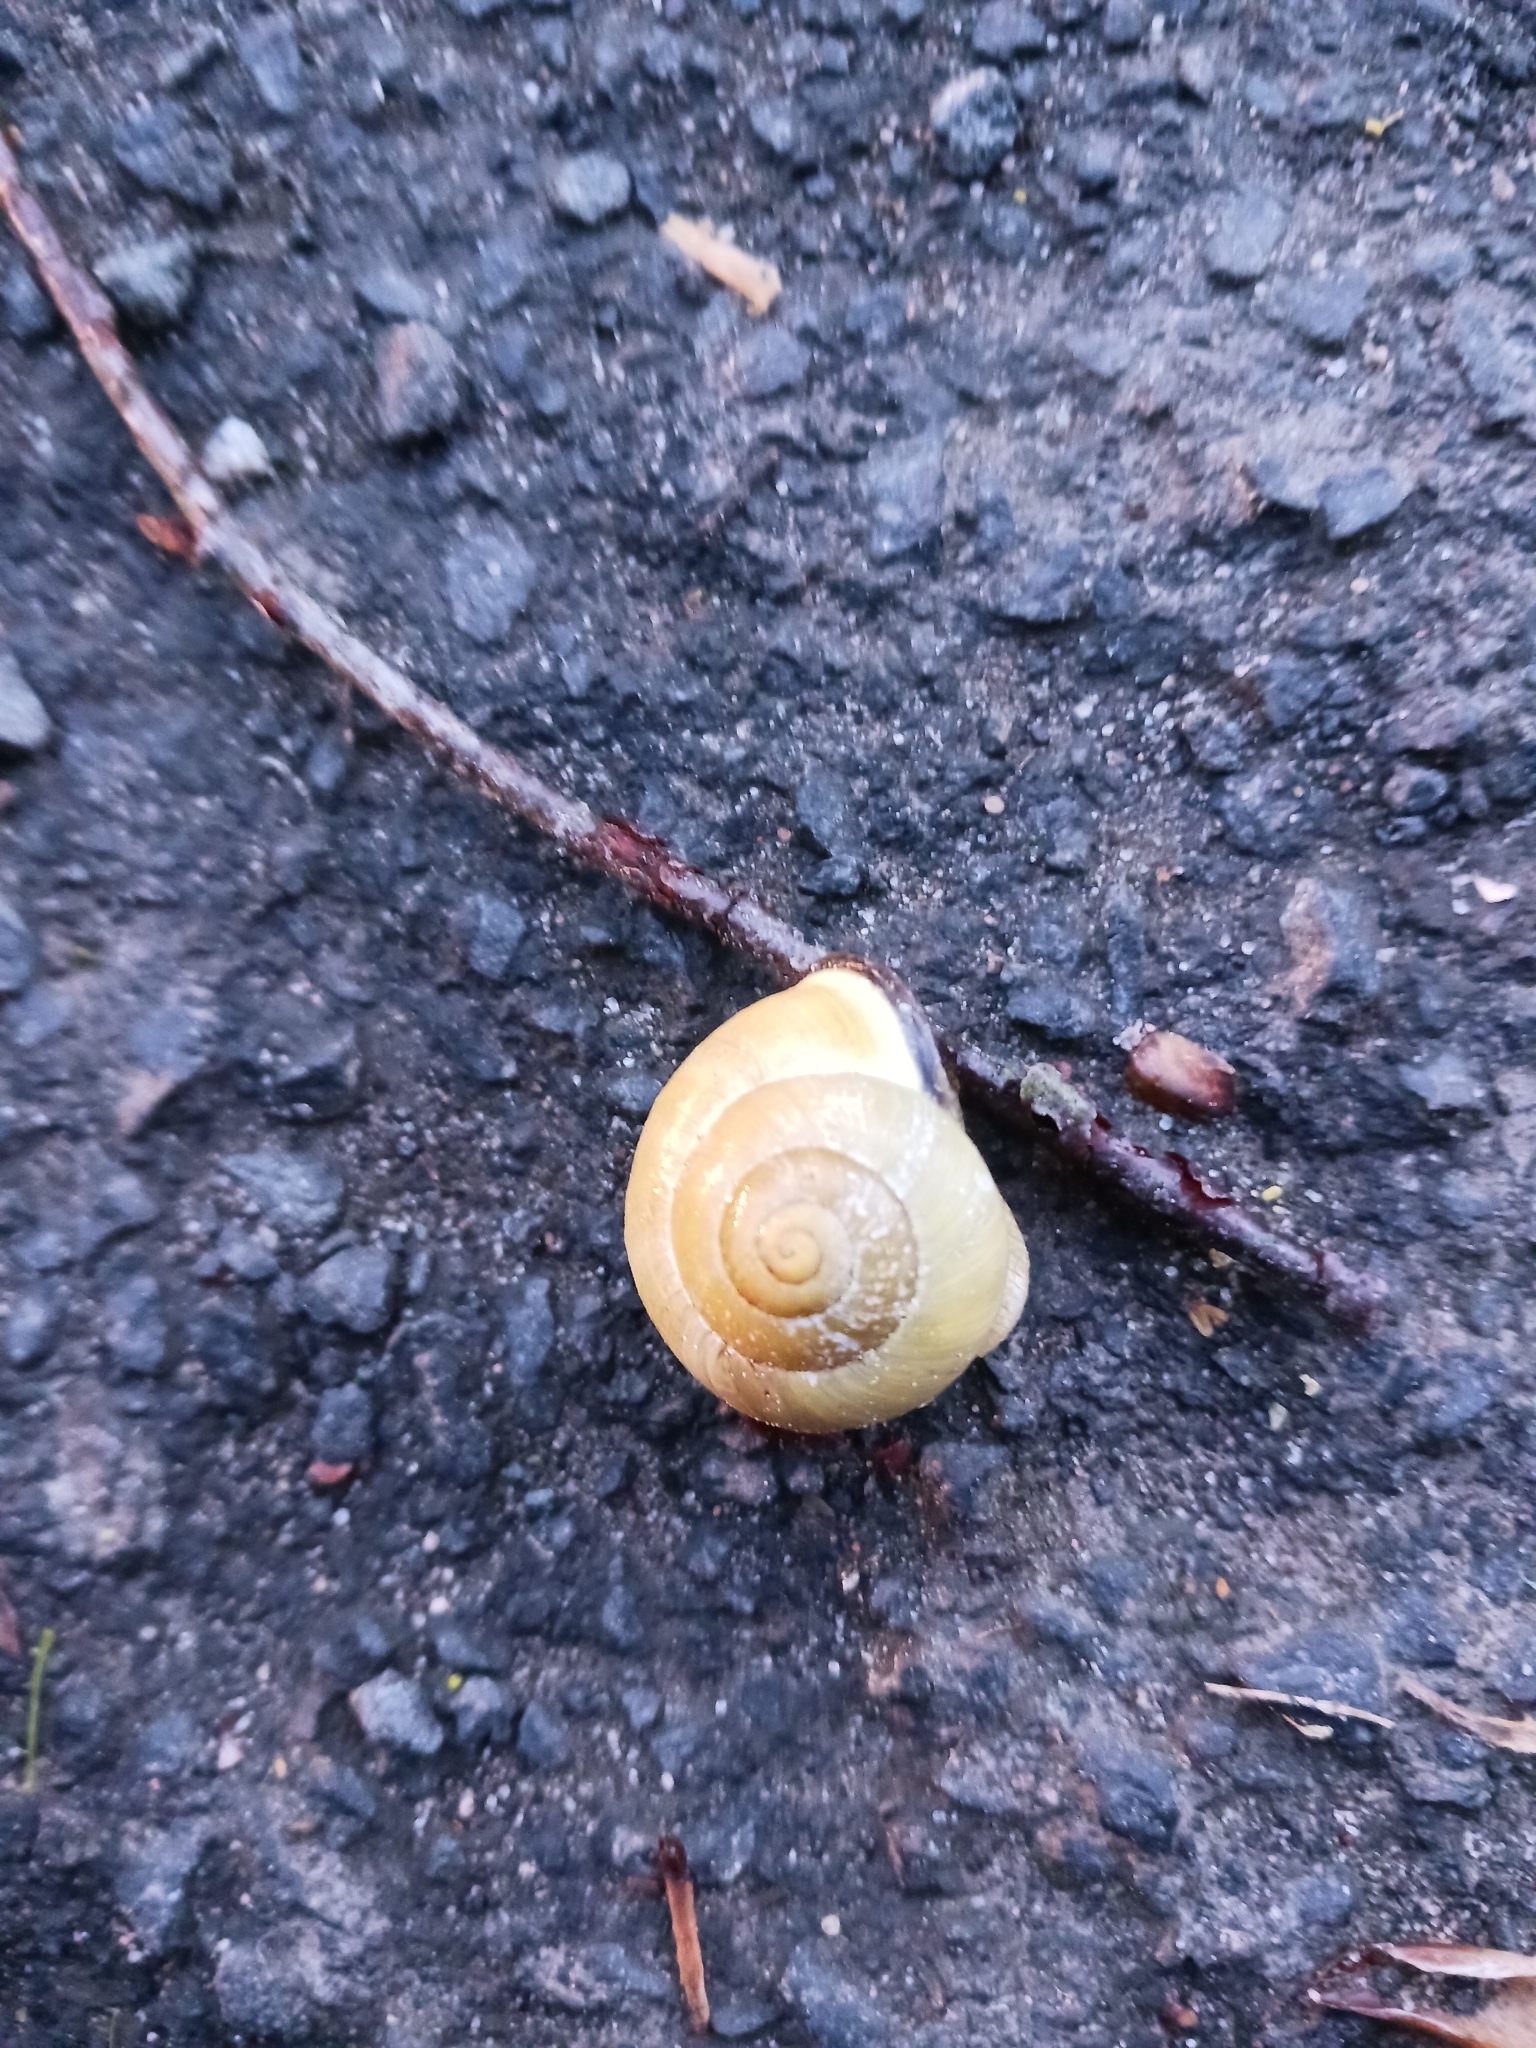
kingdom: Animalia
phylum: Mollusca
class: Gastropoda
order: Stylommatophora
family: Helicidae
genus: Cepaea
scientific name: Cepaea nemoralis
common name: Grovesnail
